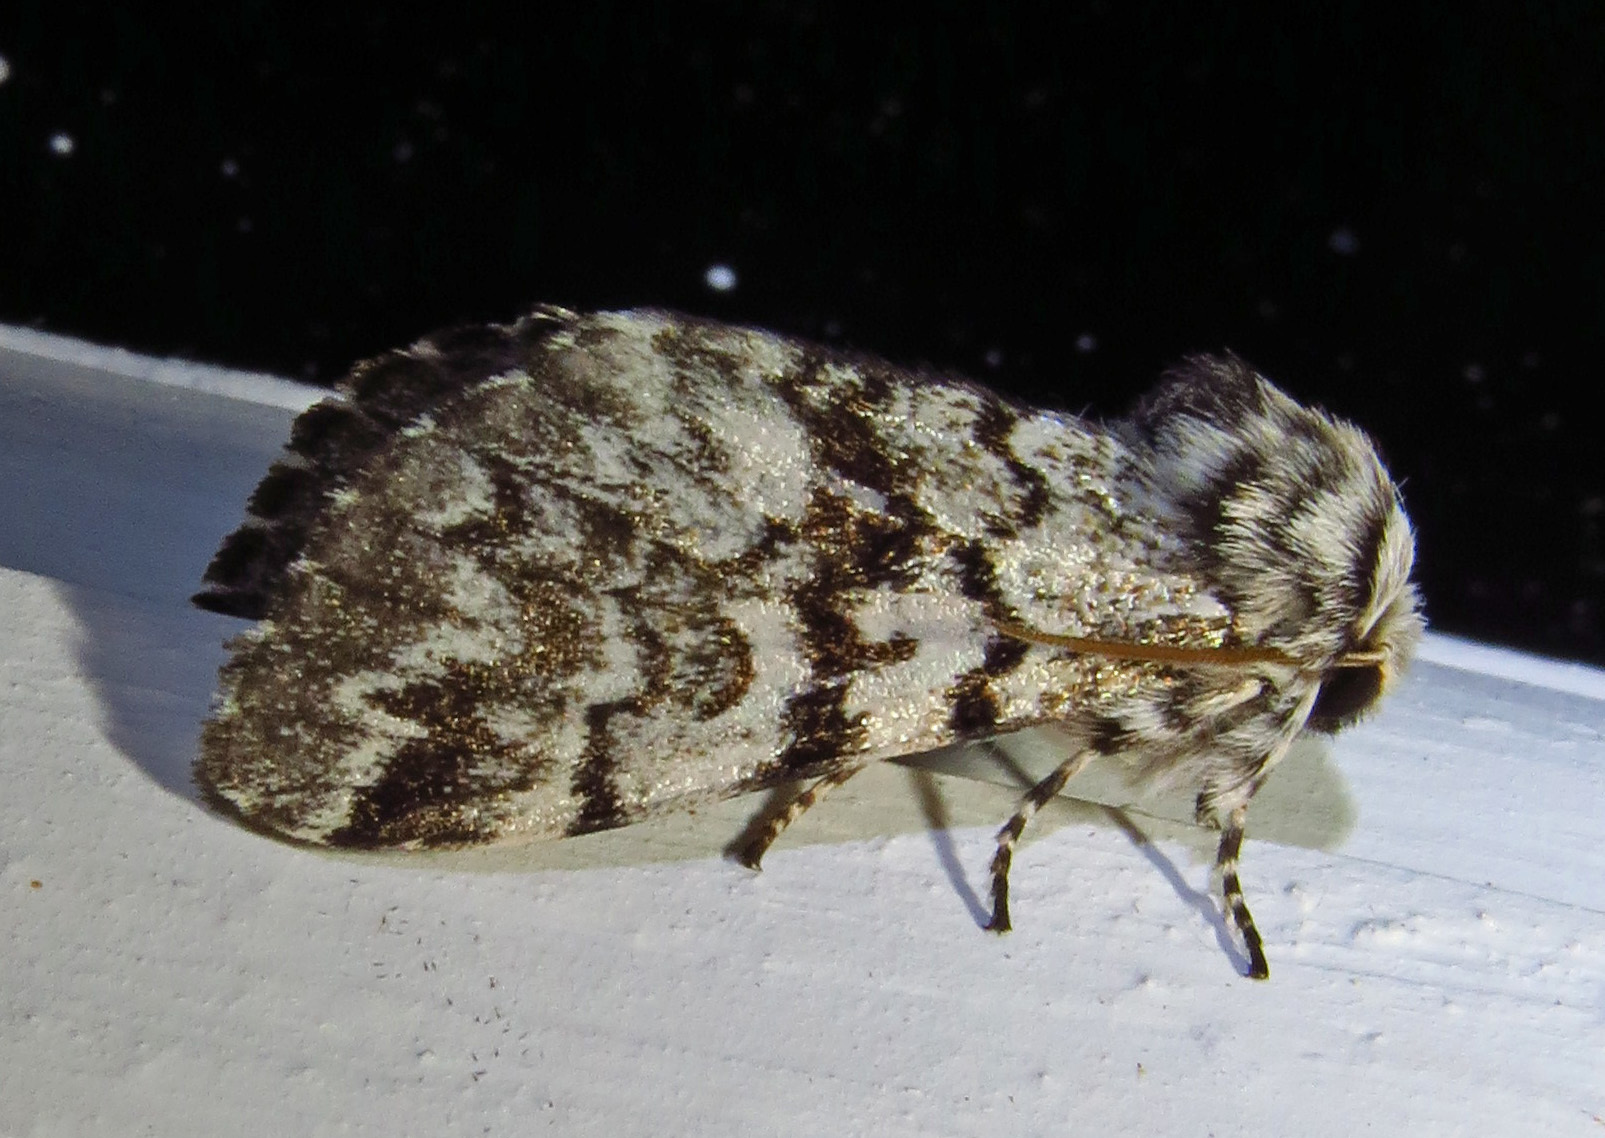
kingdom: Animalia
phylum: Arthropoda
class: Insecta
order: Lepidoptera
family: Noctuidae
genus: Panthea
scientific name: Panthea acronyctoides
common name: Black zigzag moth
